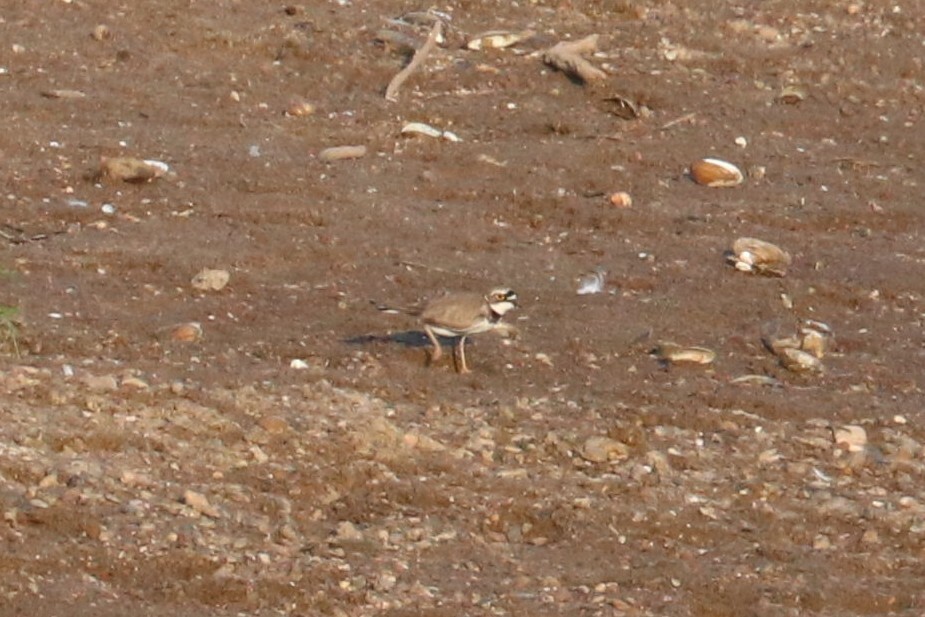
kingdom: Animalia
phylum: Chordata
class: Aves
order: Charadriiformes
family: Charadriidae
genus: Charadrius
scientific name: Charadrius dubius
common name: Little ringed plover
